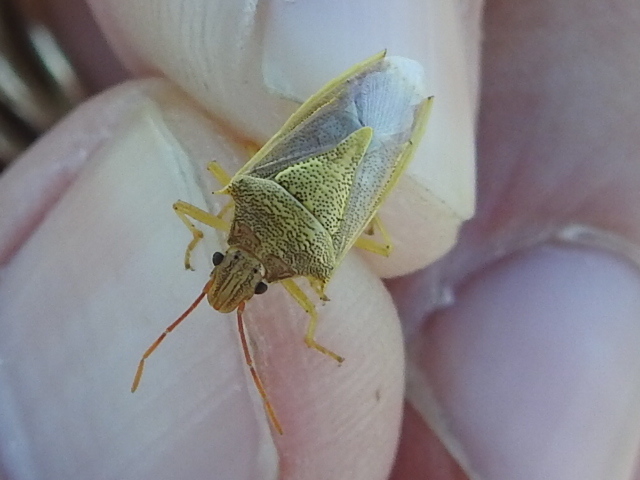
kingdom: Animalia
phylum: Arthropoda
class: Insecta
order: Hemiptera
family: Pentatomidae
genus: Oebalus
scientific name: Oebalus pugnax
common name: Rice stink bug
